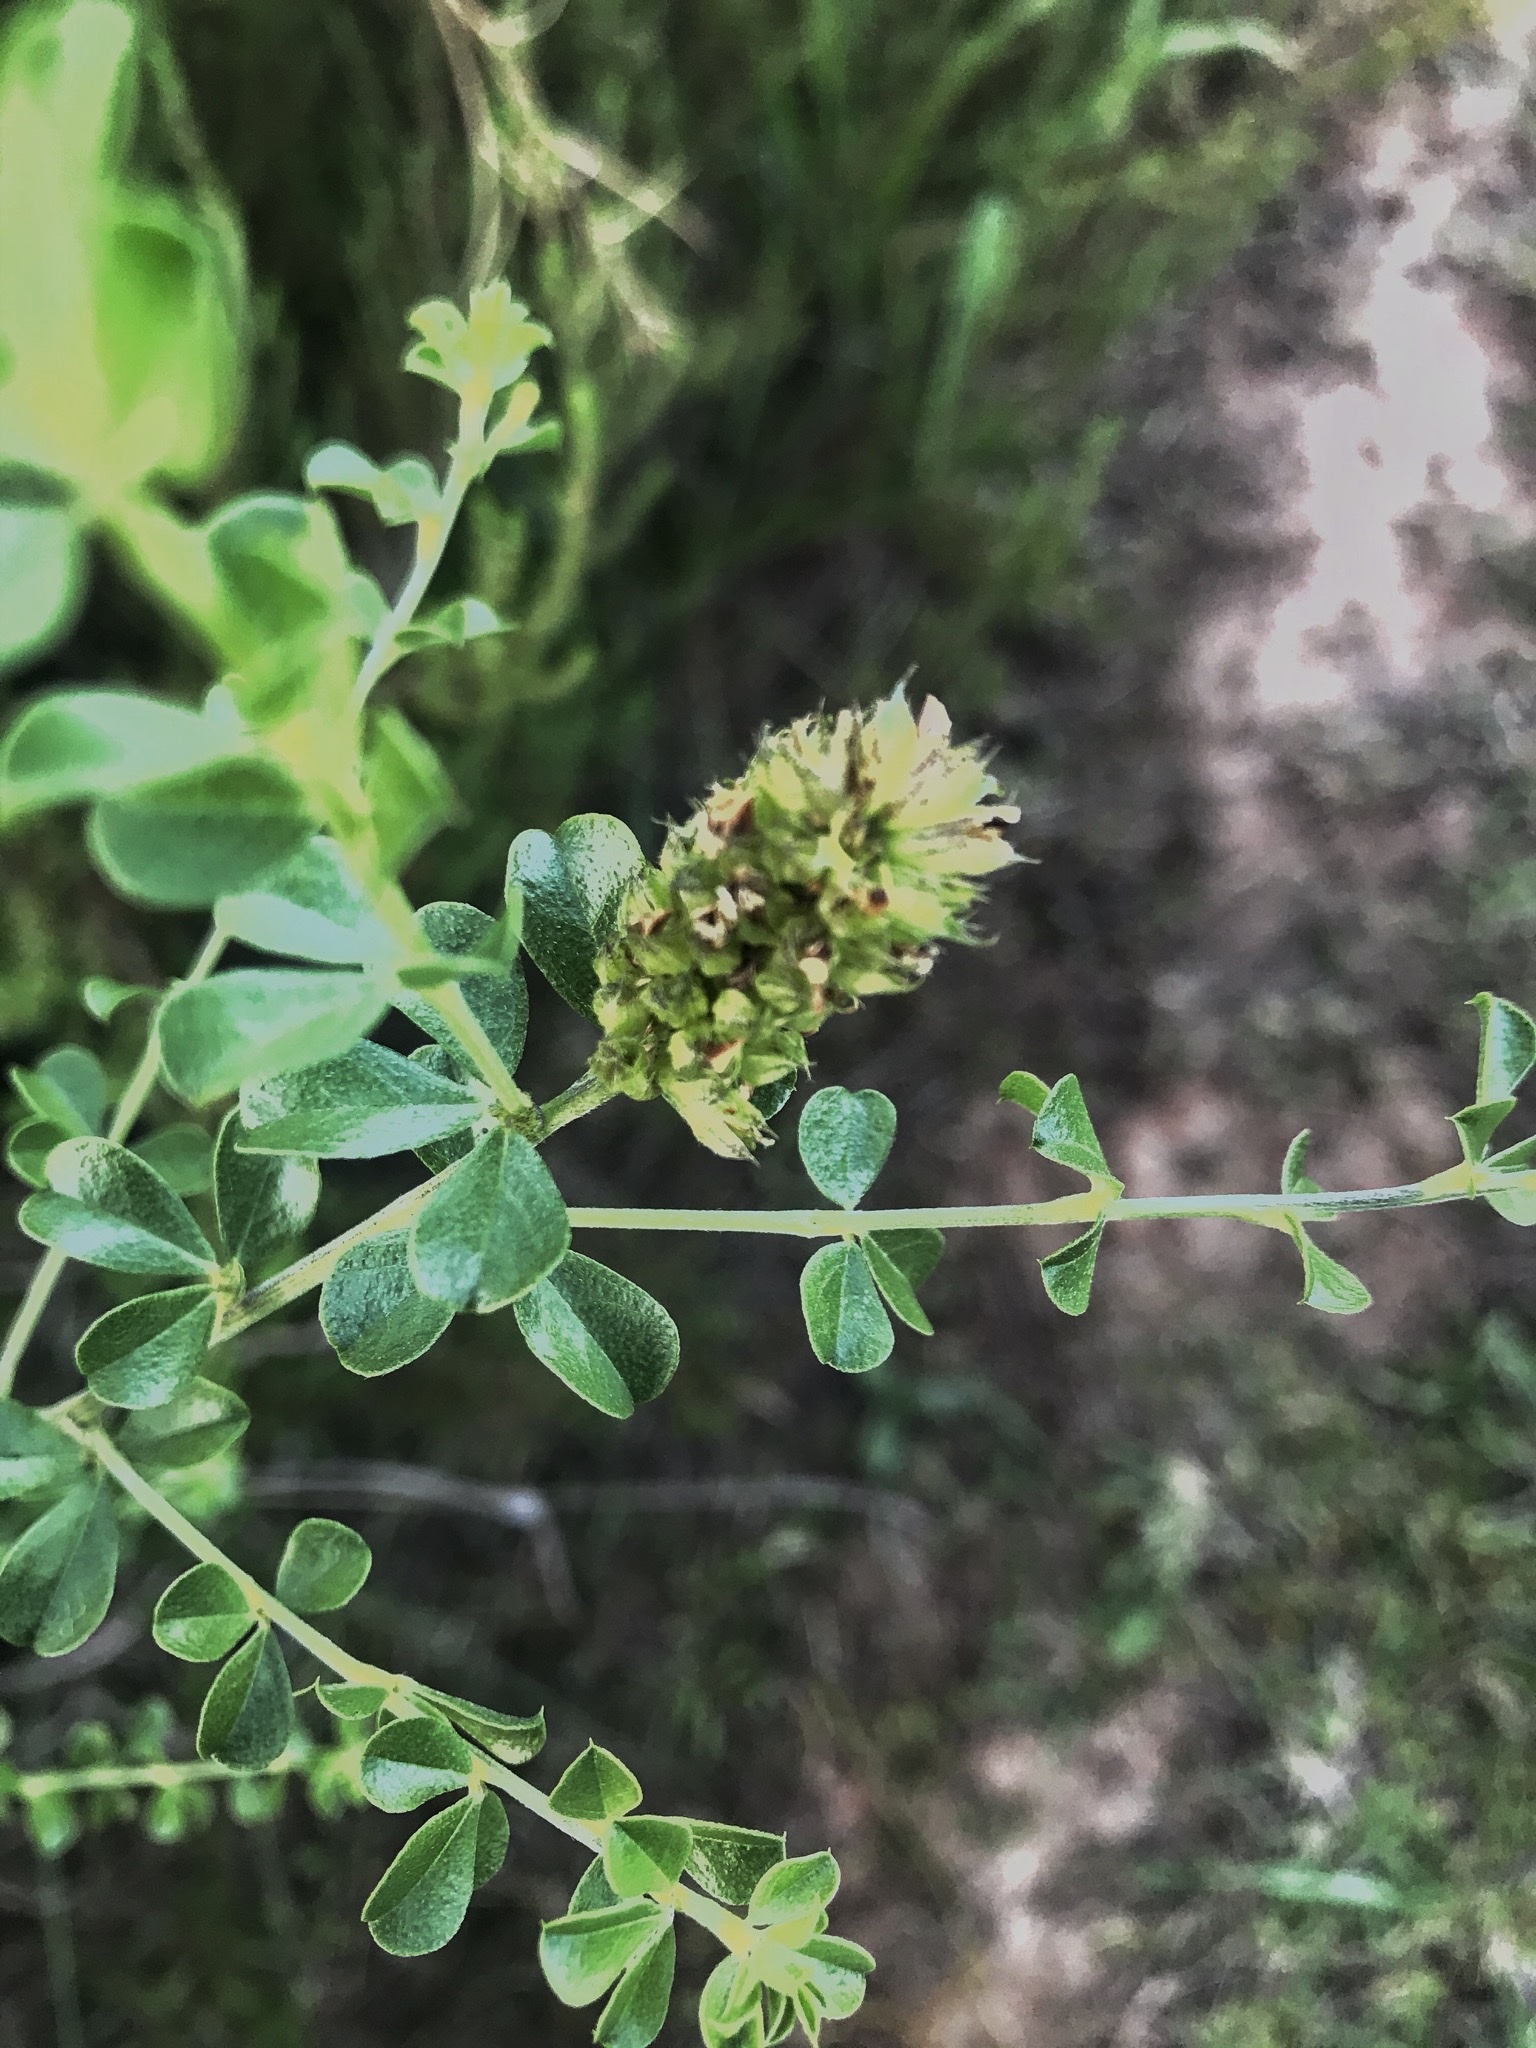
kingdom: Plantae
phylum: Tracheophyta
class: Magnoliopsida
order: Fabales
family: Fabaceae
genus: Psoralea
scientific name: Psoralea stachyera
